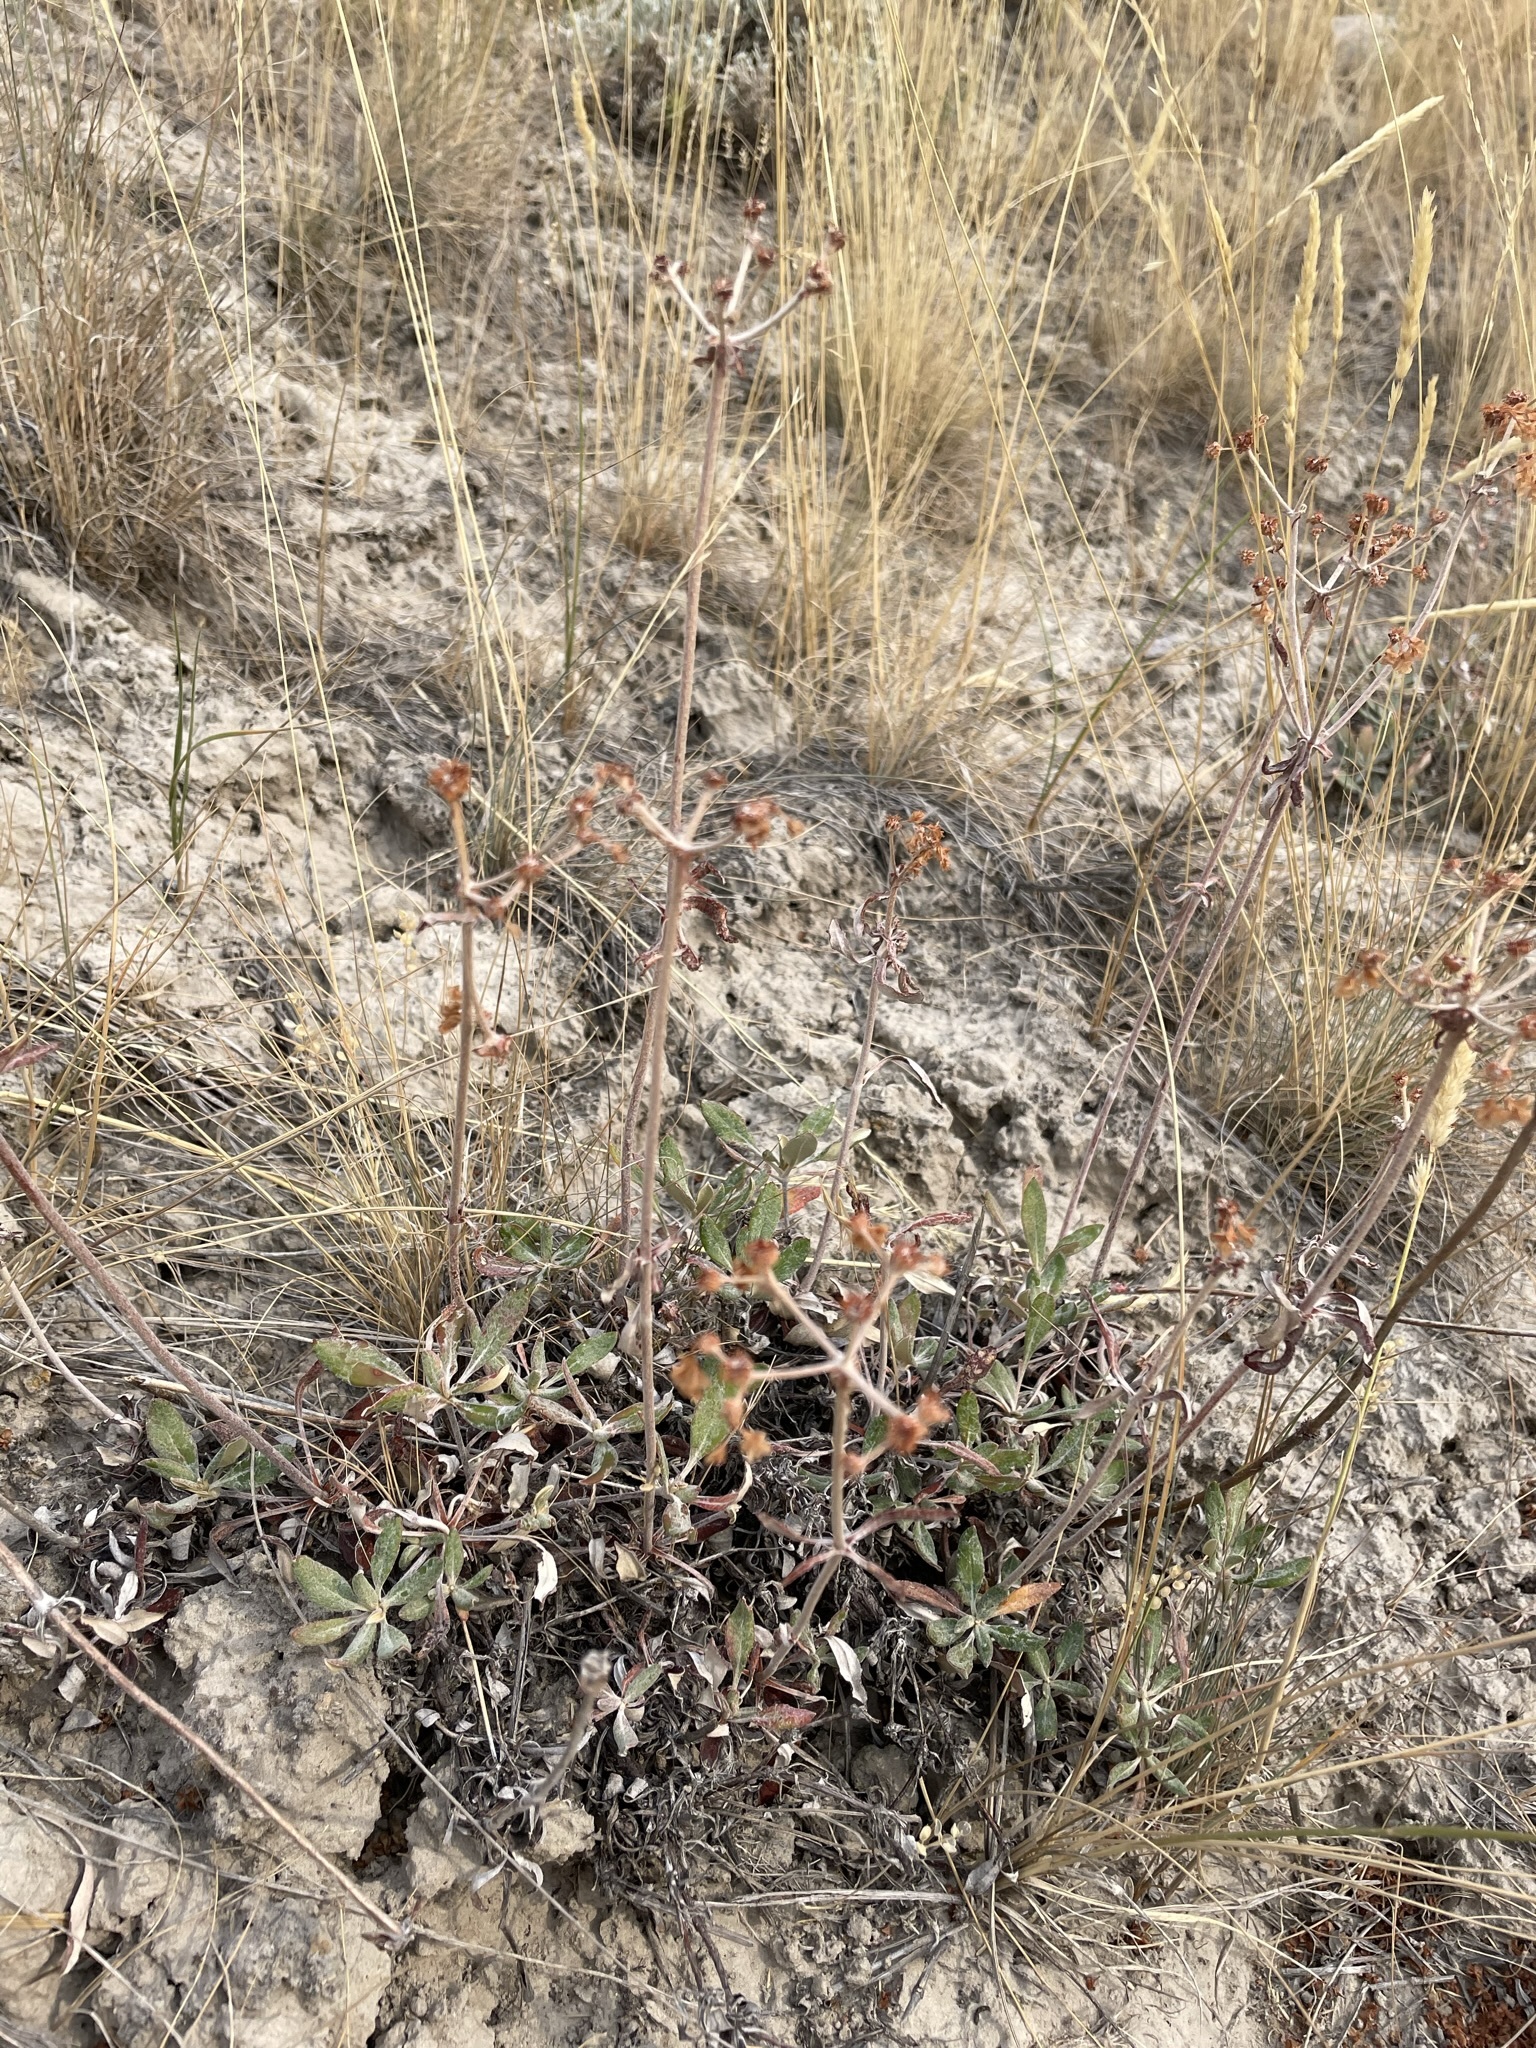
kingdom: Plantae
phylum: Tracheophyta
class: Magnoliopsida
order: Caryophyllales
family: Polygonaceae
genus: Eriogonum
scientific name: Eriogonum heracleoides
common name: Wyeth's buckwheat
